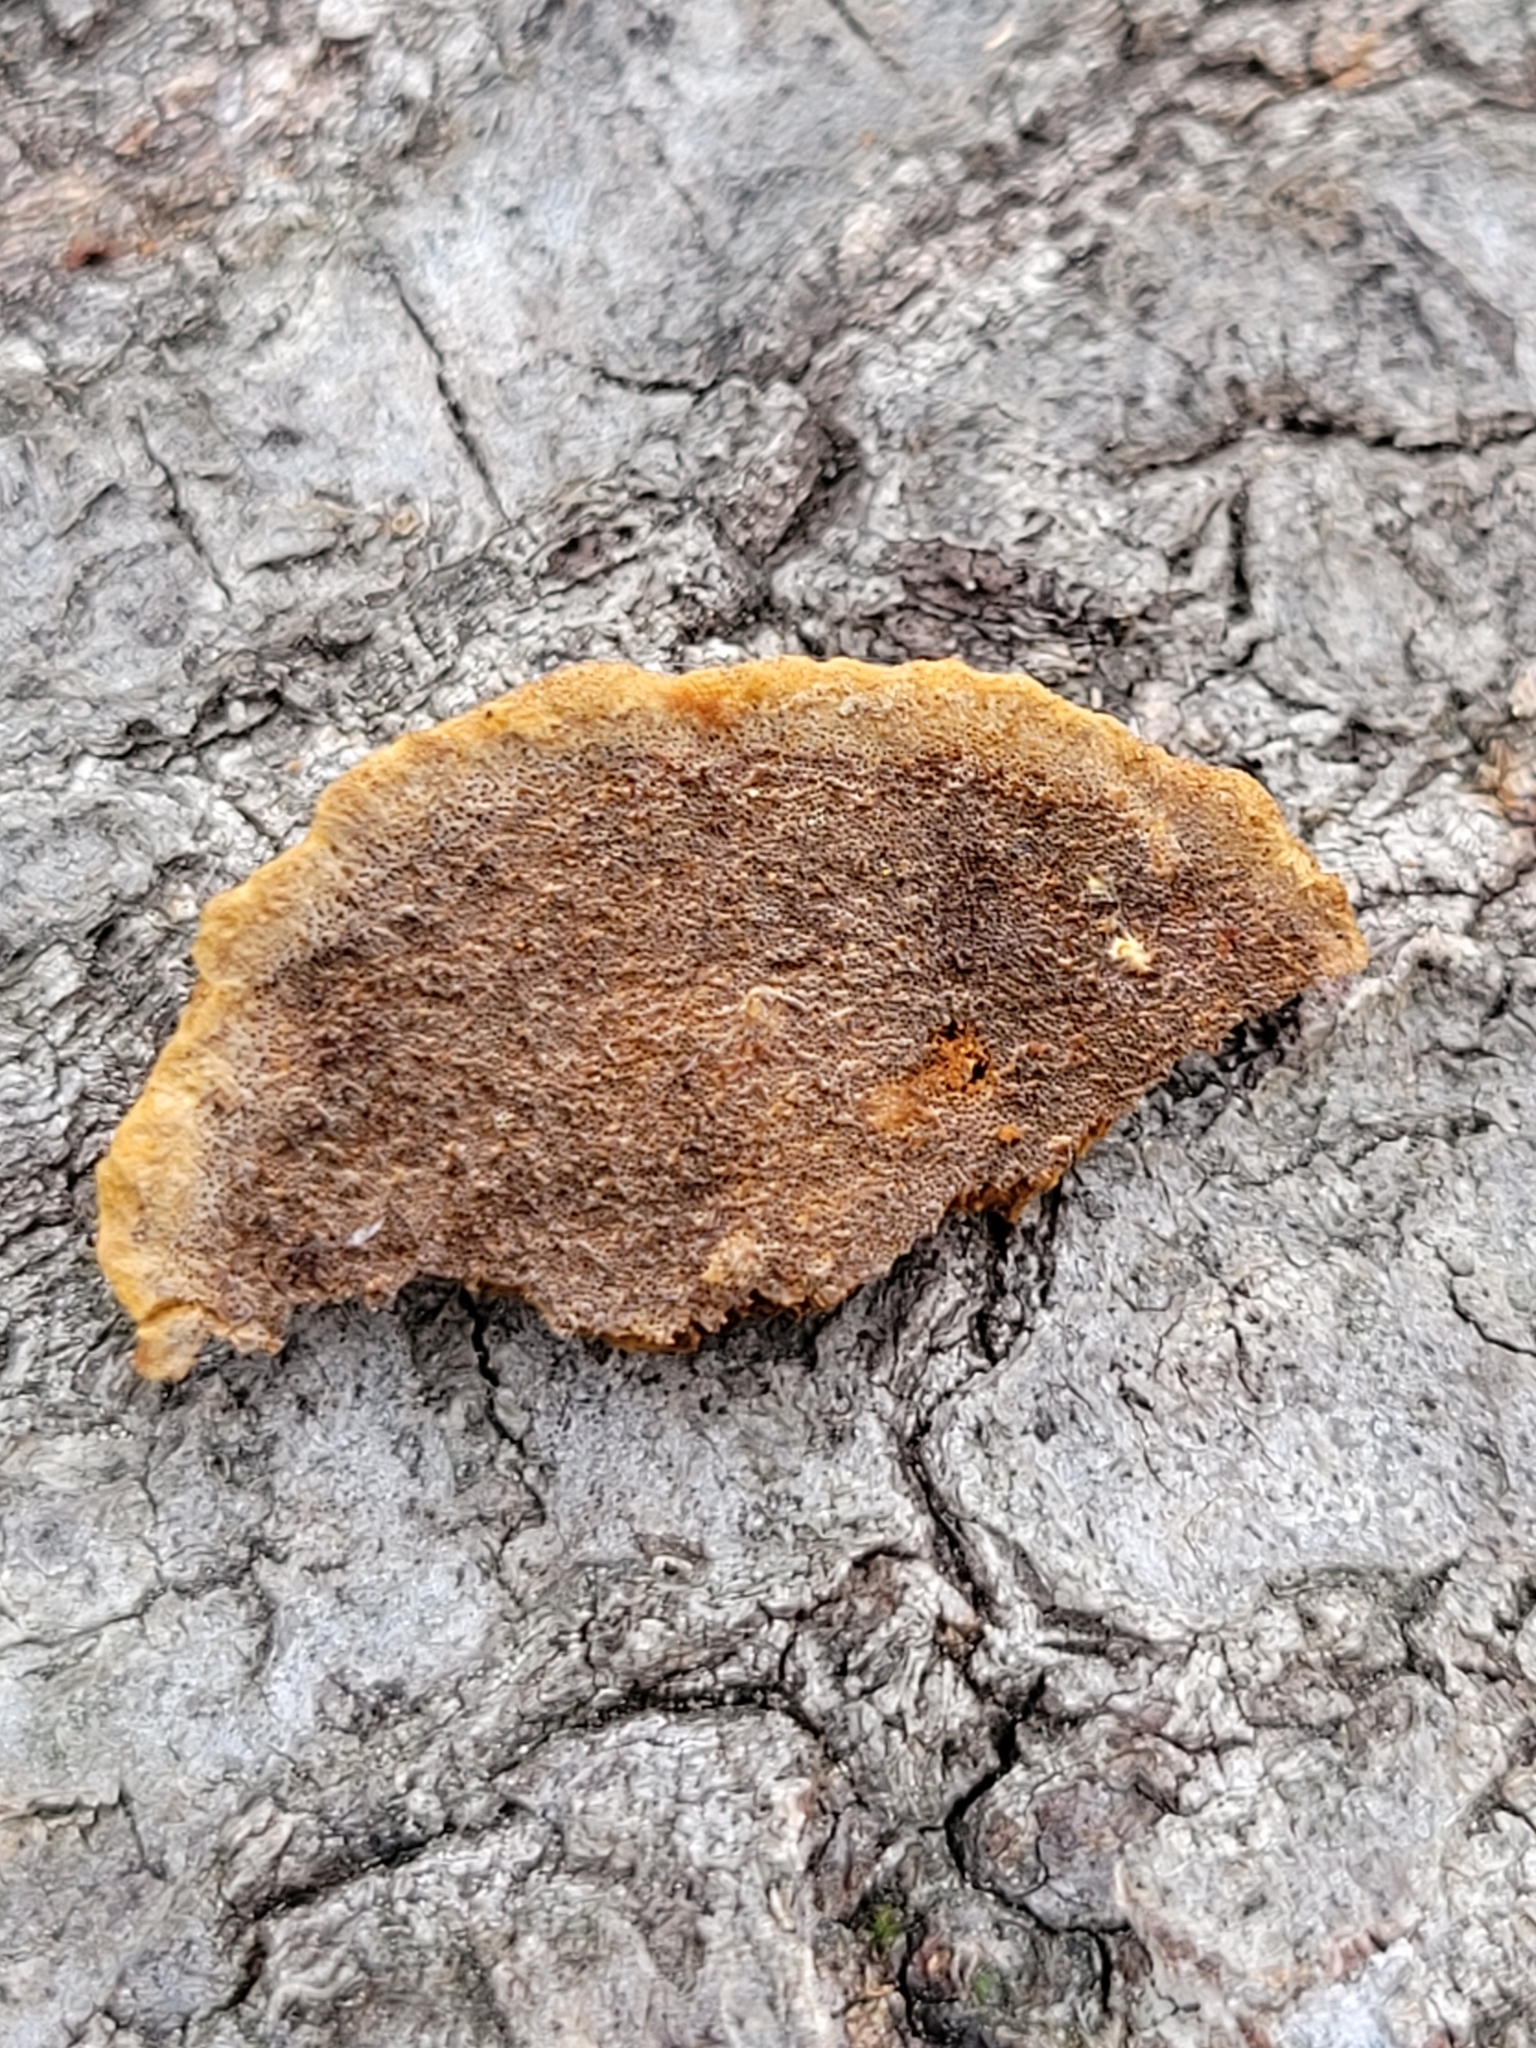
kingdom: Fungi
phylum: Basidiomycota
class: Agaricomycetes
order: Hymenochaetales
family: Hymenochaetaceae
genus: Phellinus
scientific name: Phellinus gilvus
